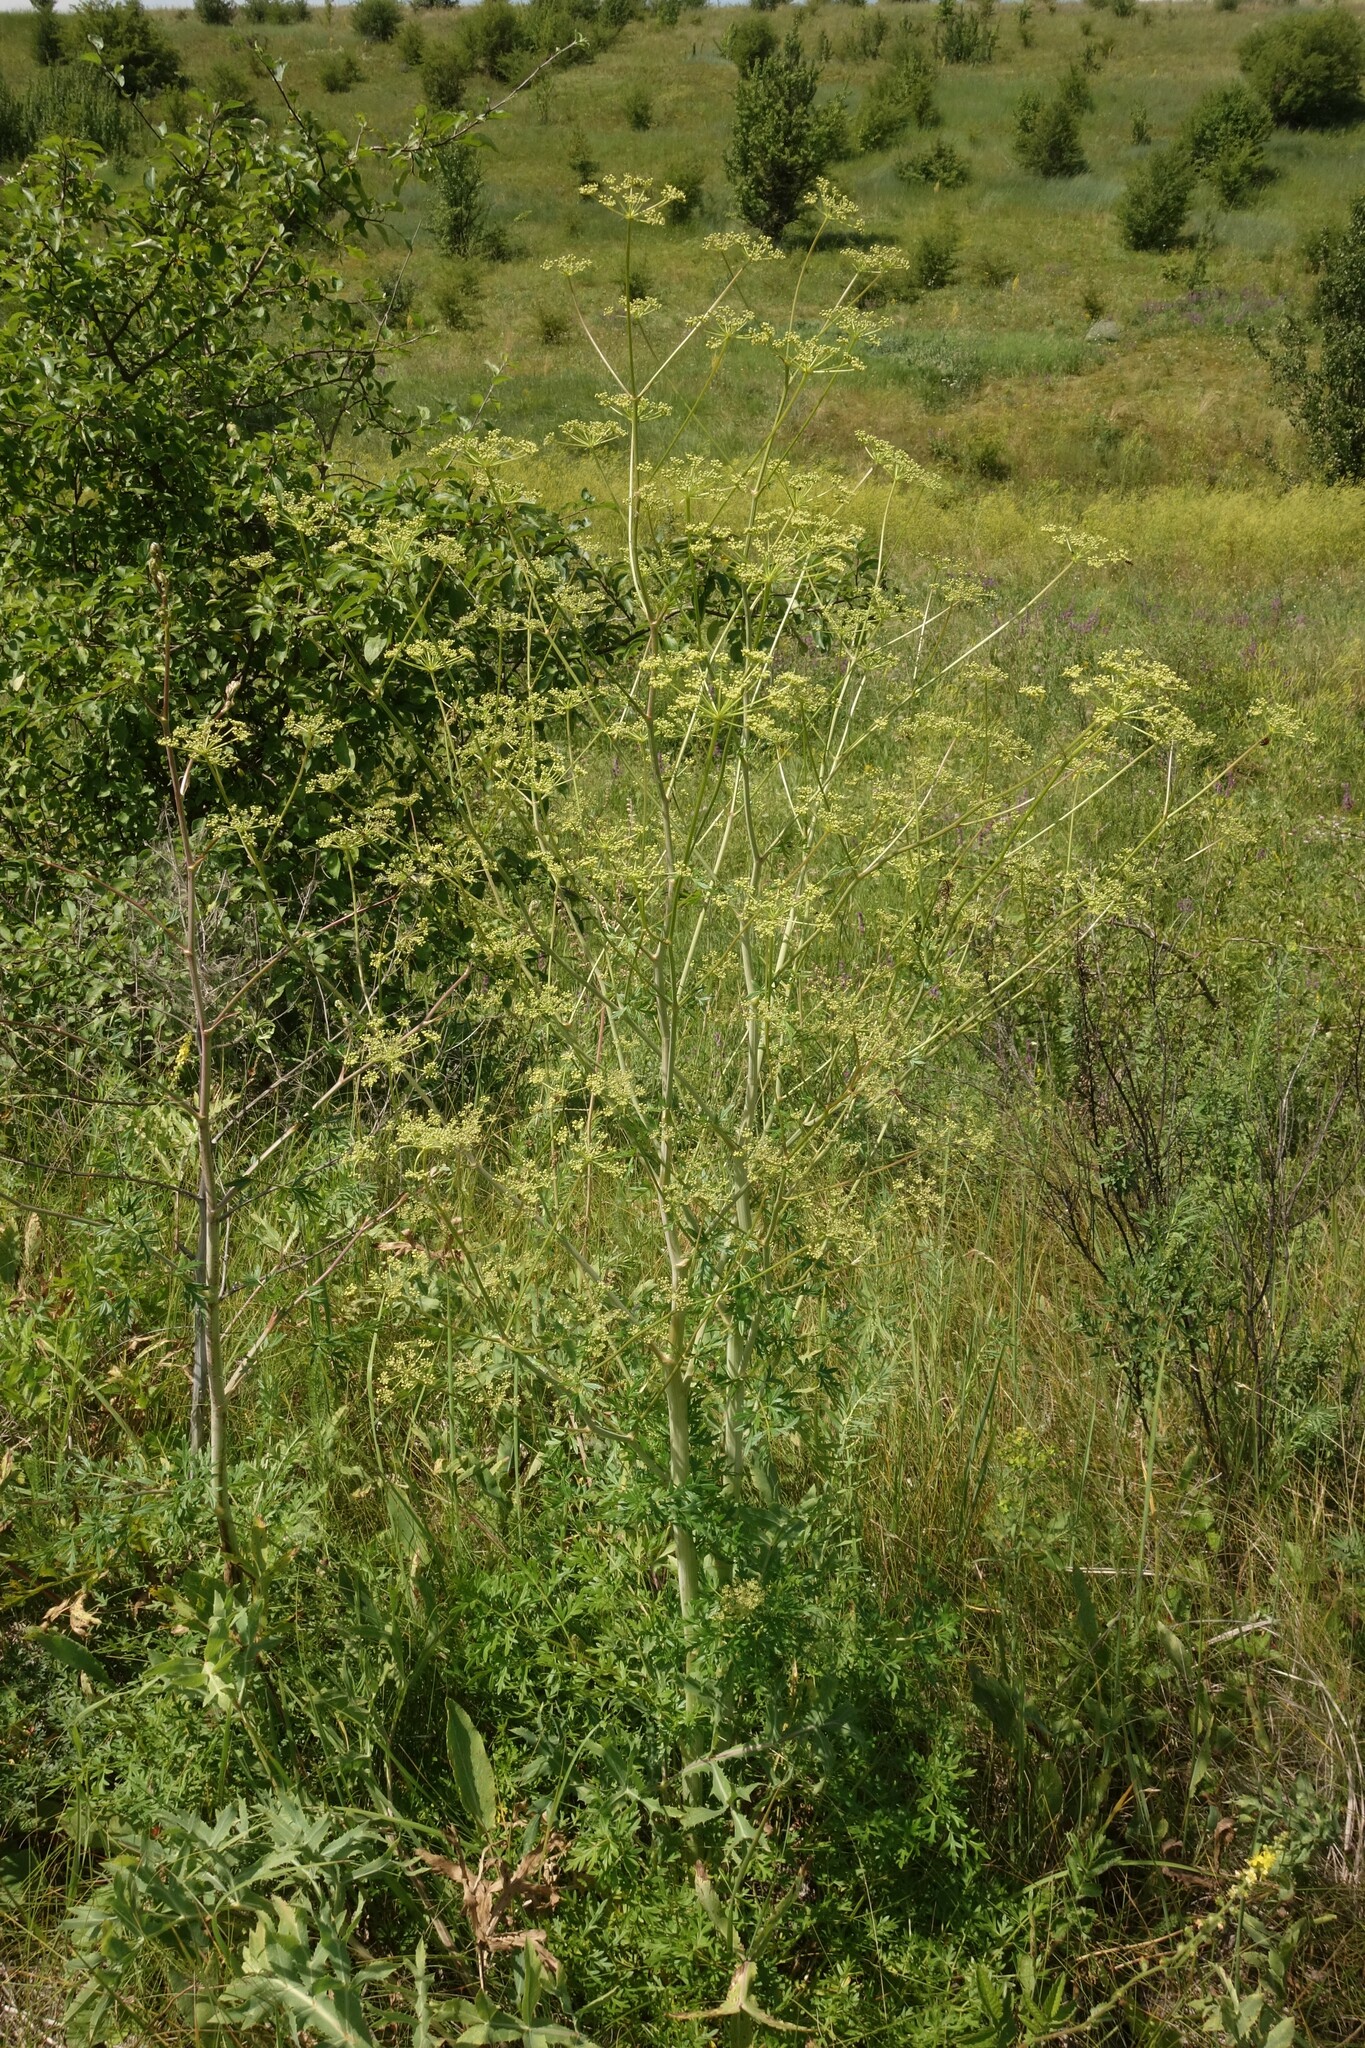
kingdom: Plantae
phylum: Tracheophyta
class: Magnoliopsida
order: Apiales
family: Apiaceae
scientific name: Apiaceae
